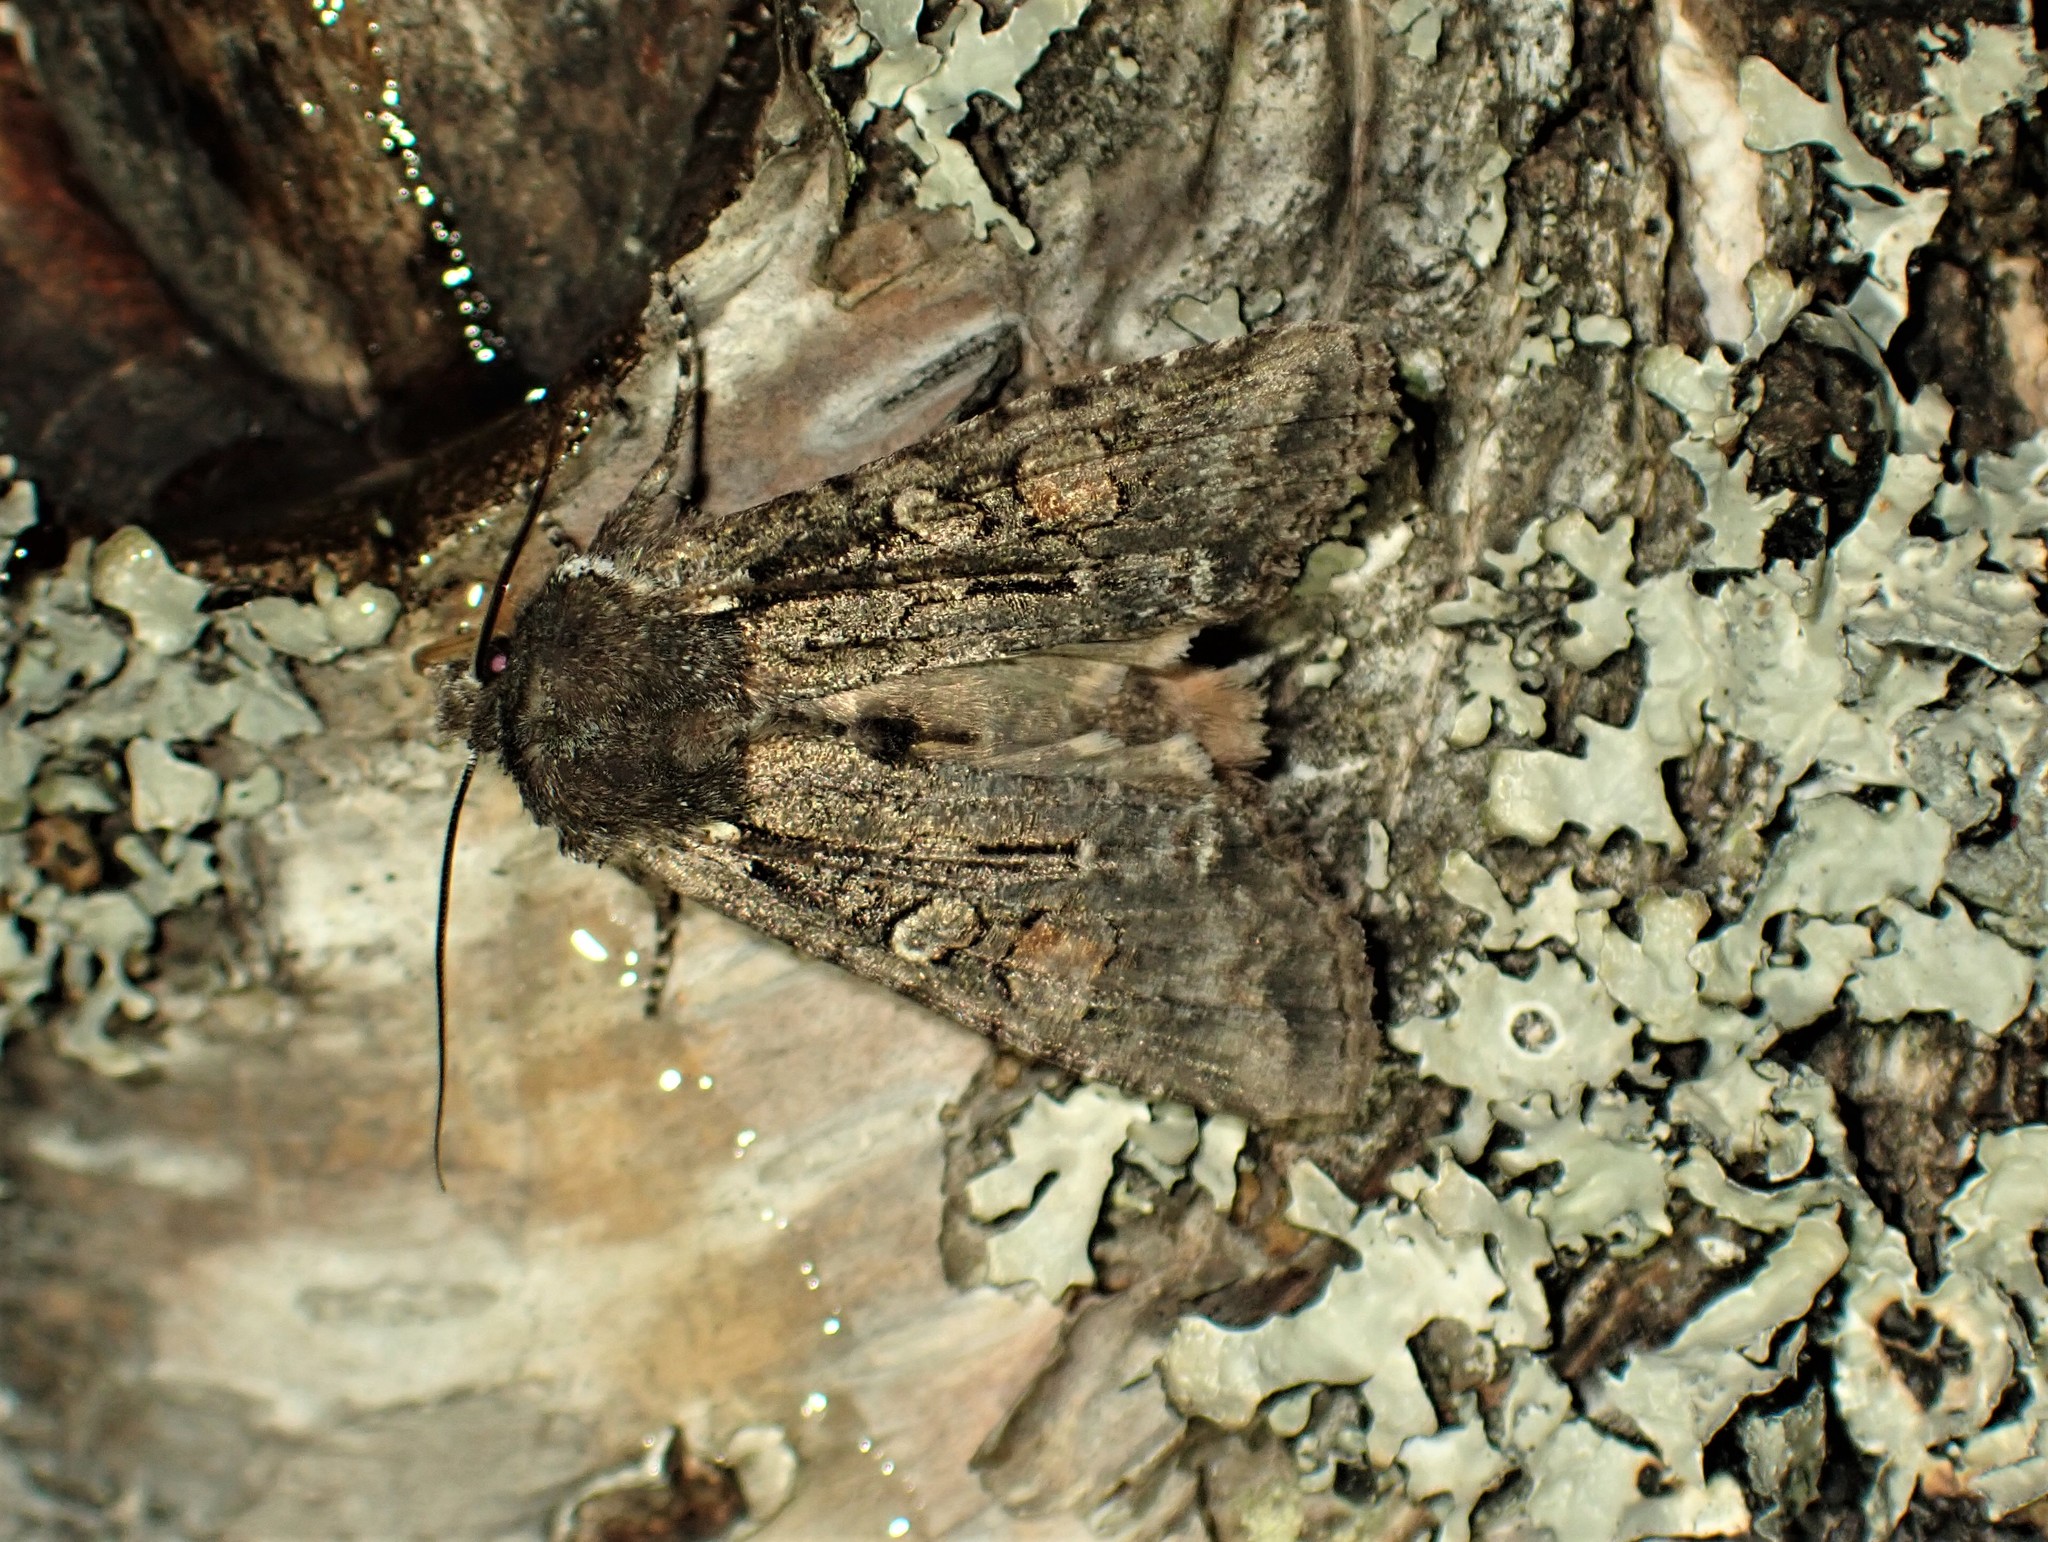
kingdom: Animalia
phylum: Arthropoda
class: Insecta
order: Lepidoptera
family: Noctuidae
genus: Lithophane
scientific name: Lithophane pexata
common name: Plush-naped pinion moth
